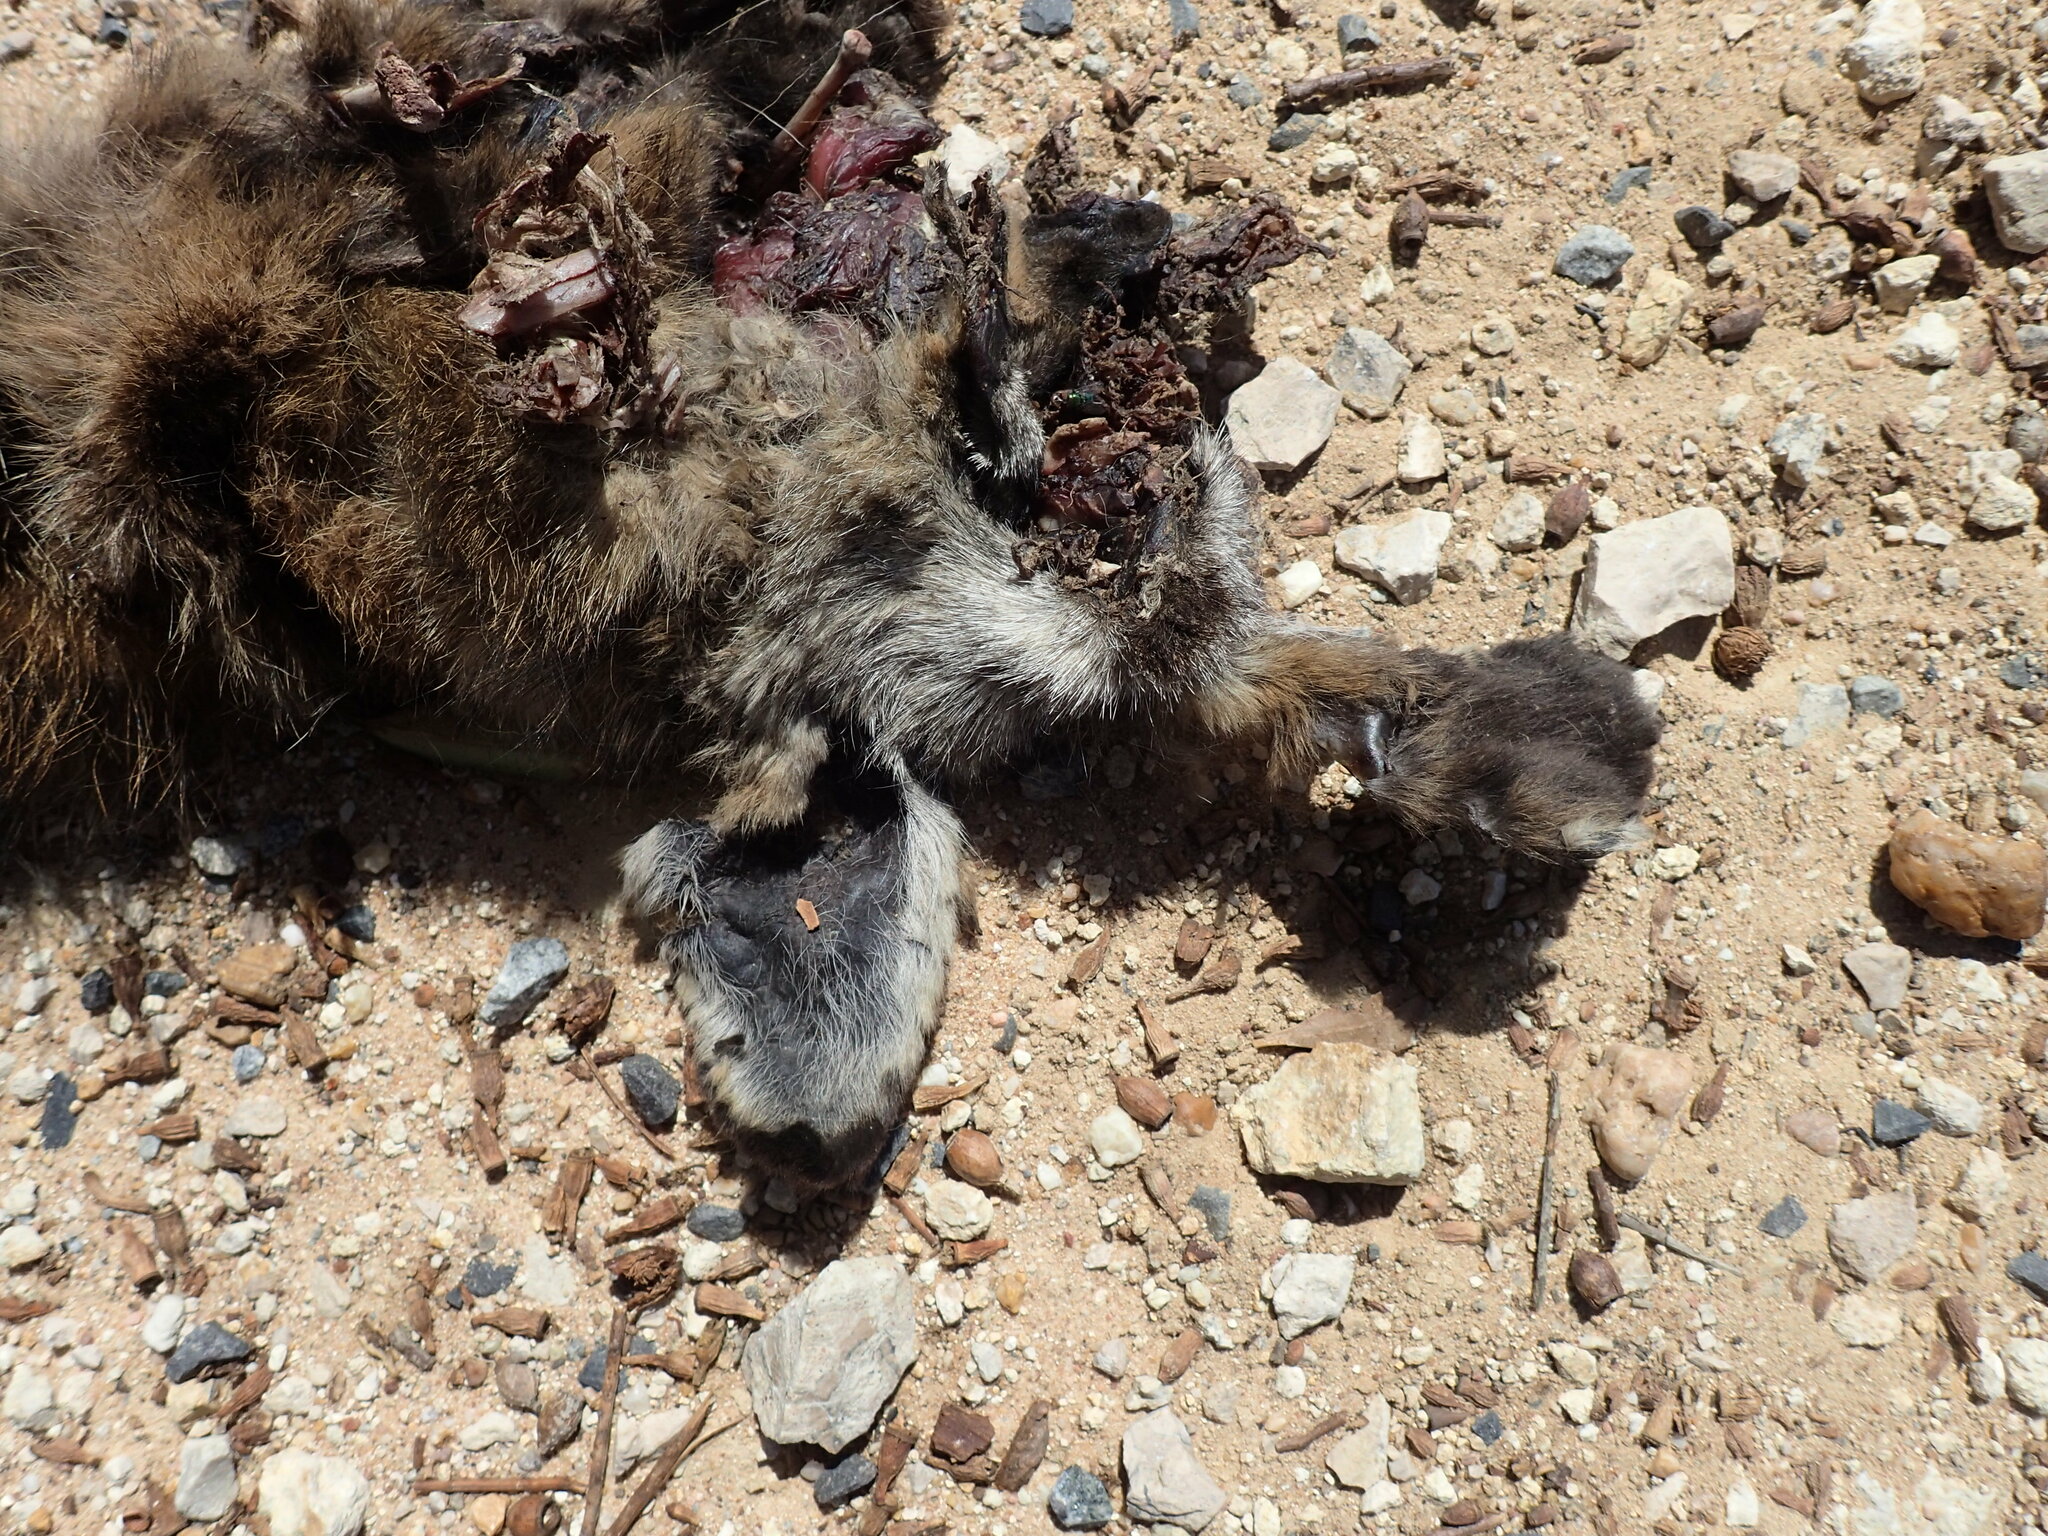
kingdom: Animalia
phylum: Chordata
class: Mammalia
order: Carnivora
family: Canidae
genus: Otocyon
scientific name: Otocyon megalotis
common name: Bat-eared fox
